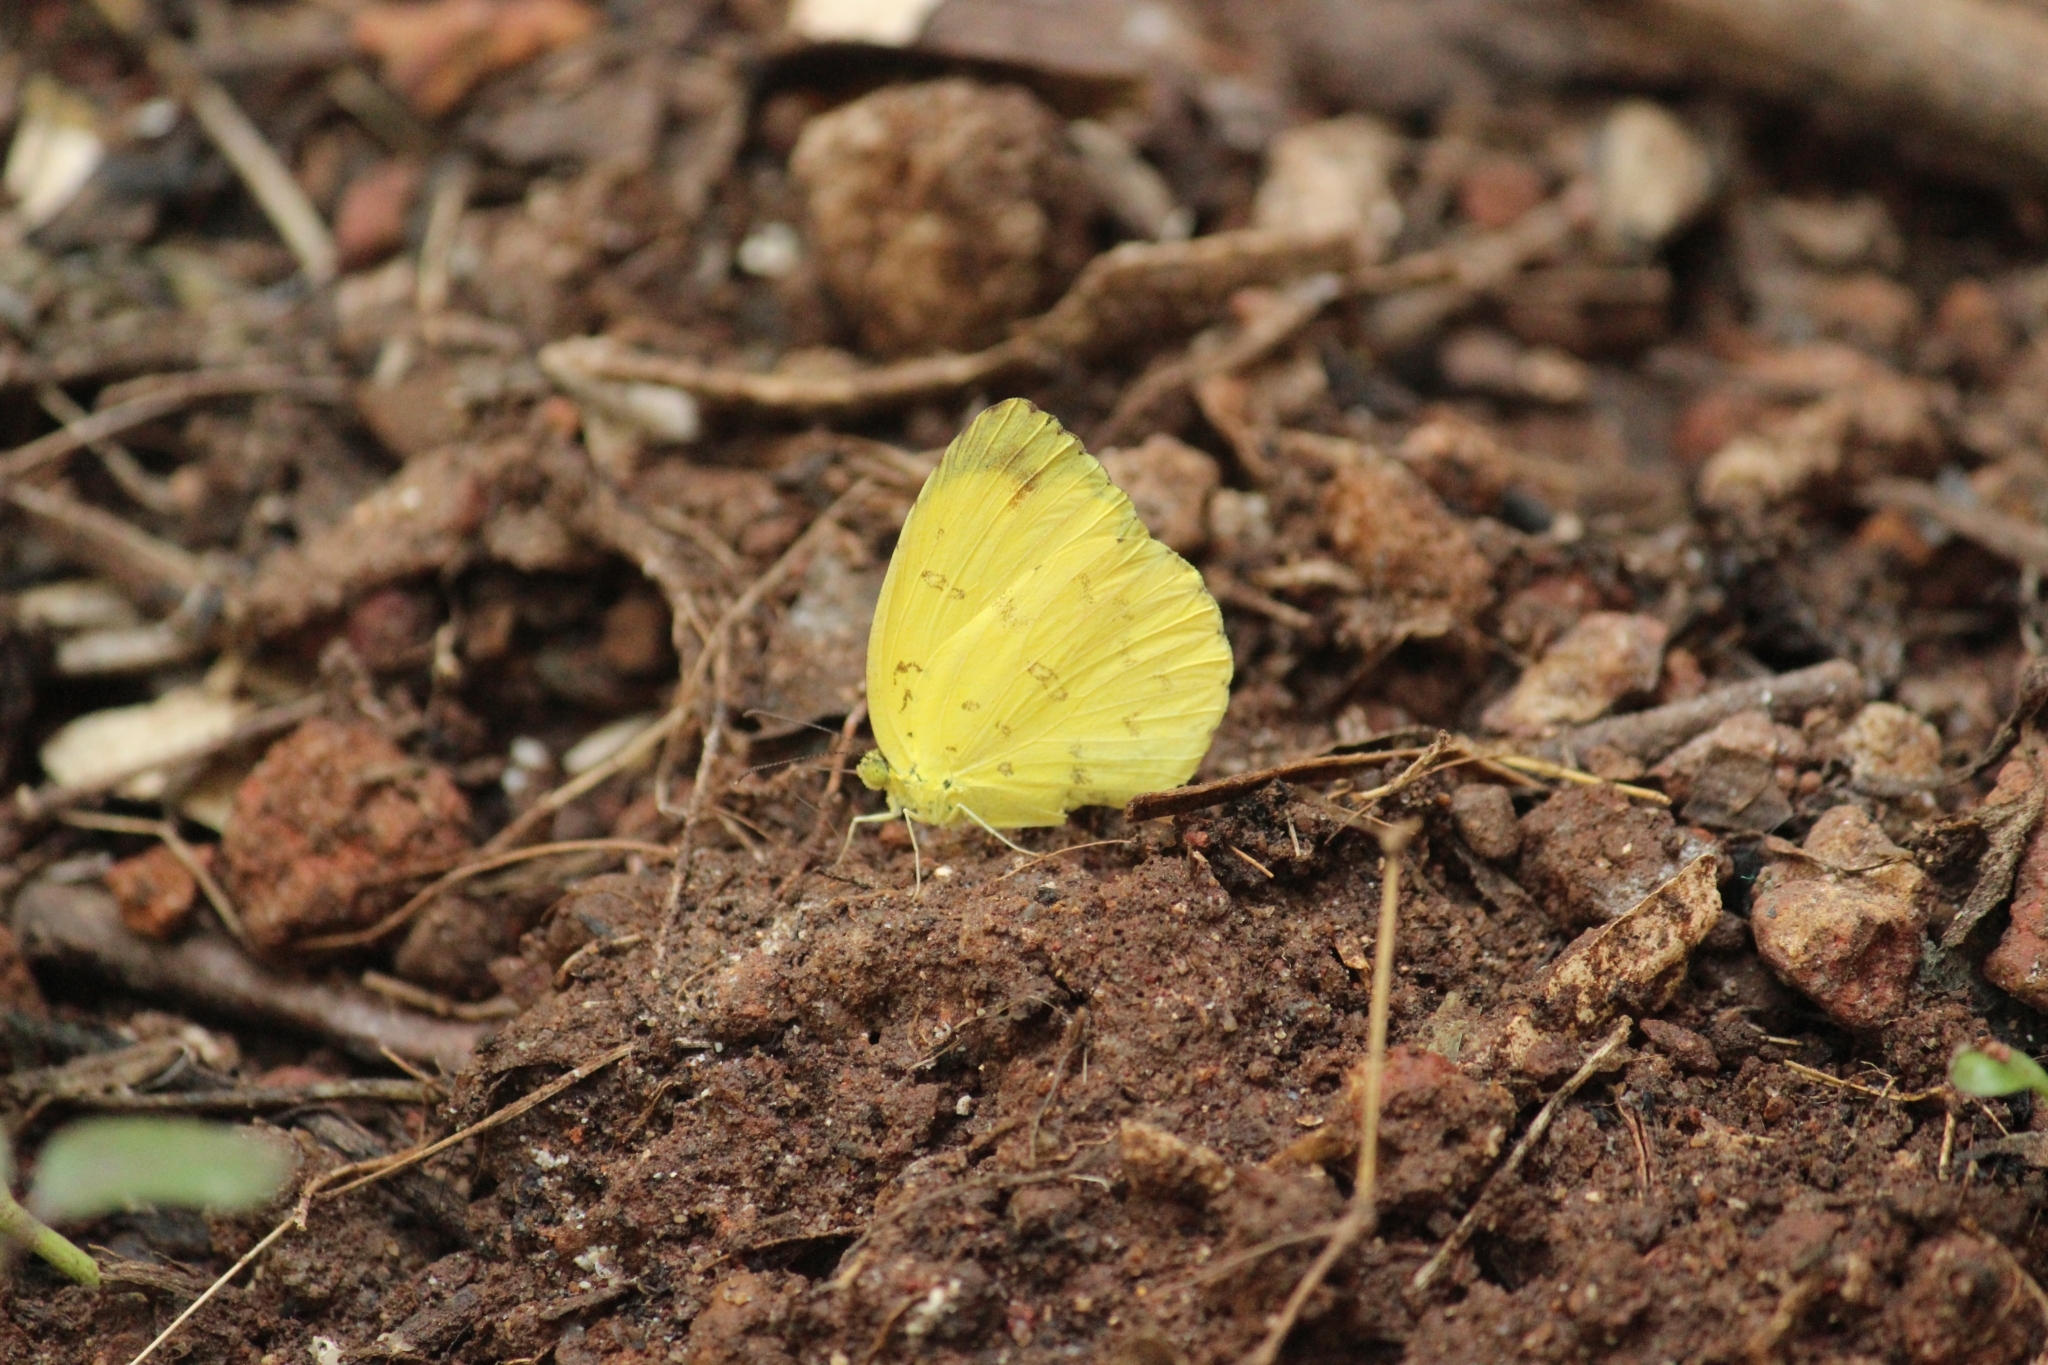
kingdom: Animalia
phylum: Arthropoda
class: Insecta
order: Lepidoptera
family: Pieridae
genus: Eurema
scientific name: Eurema blanda
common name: Three-spot grass yellow
